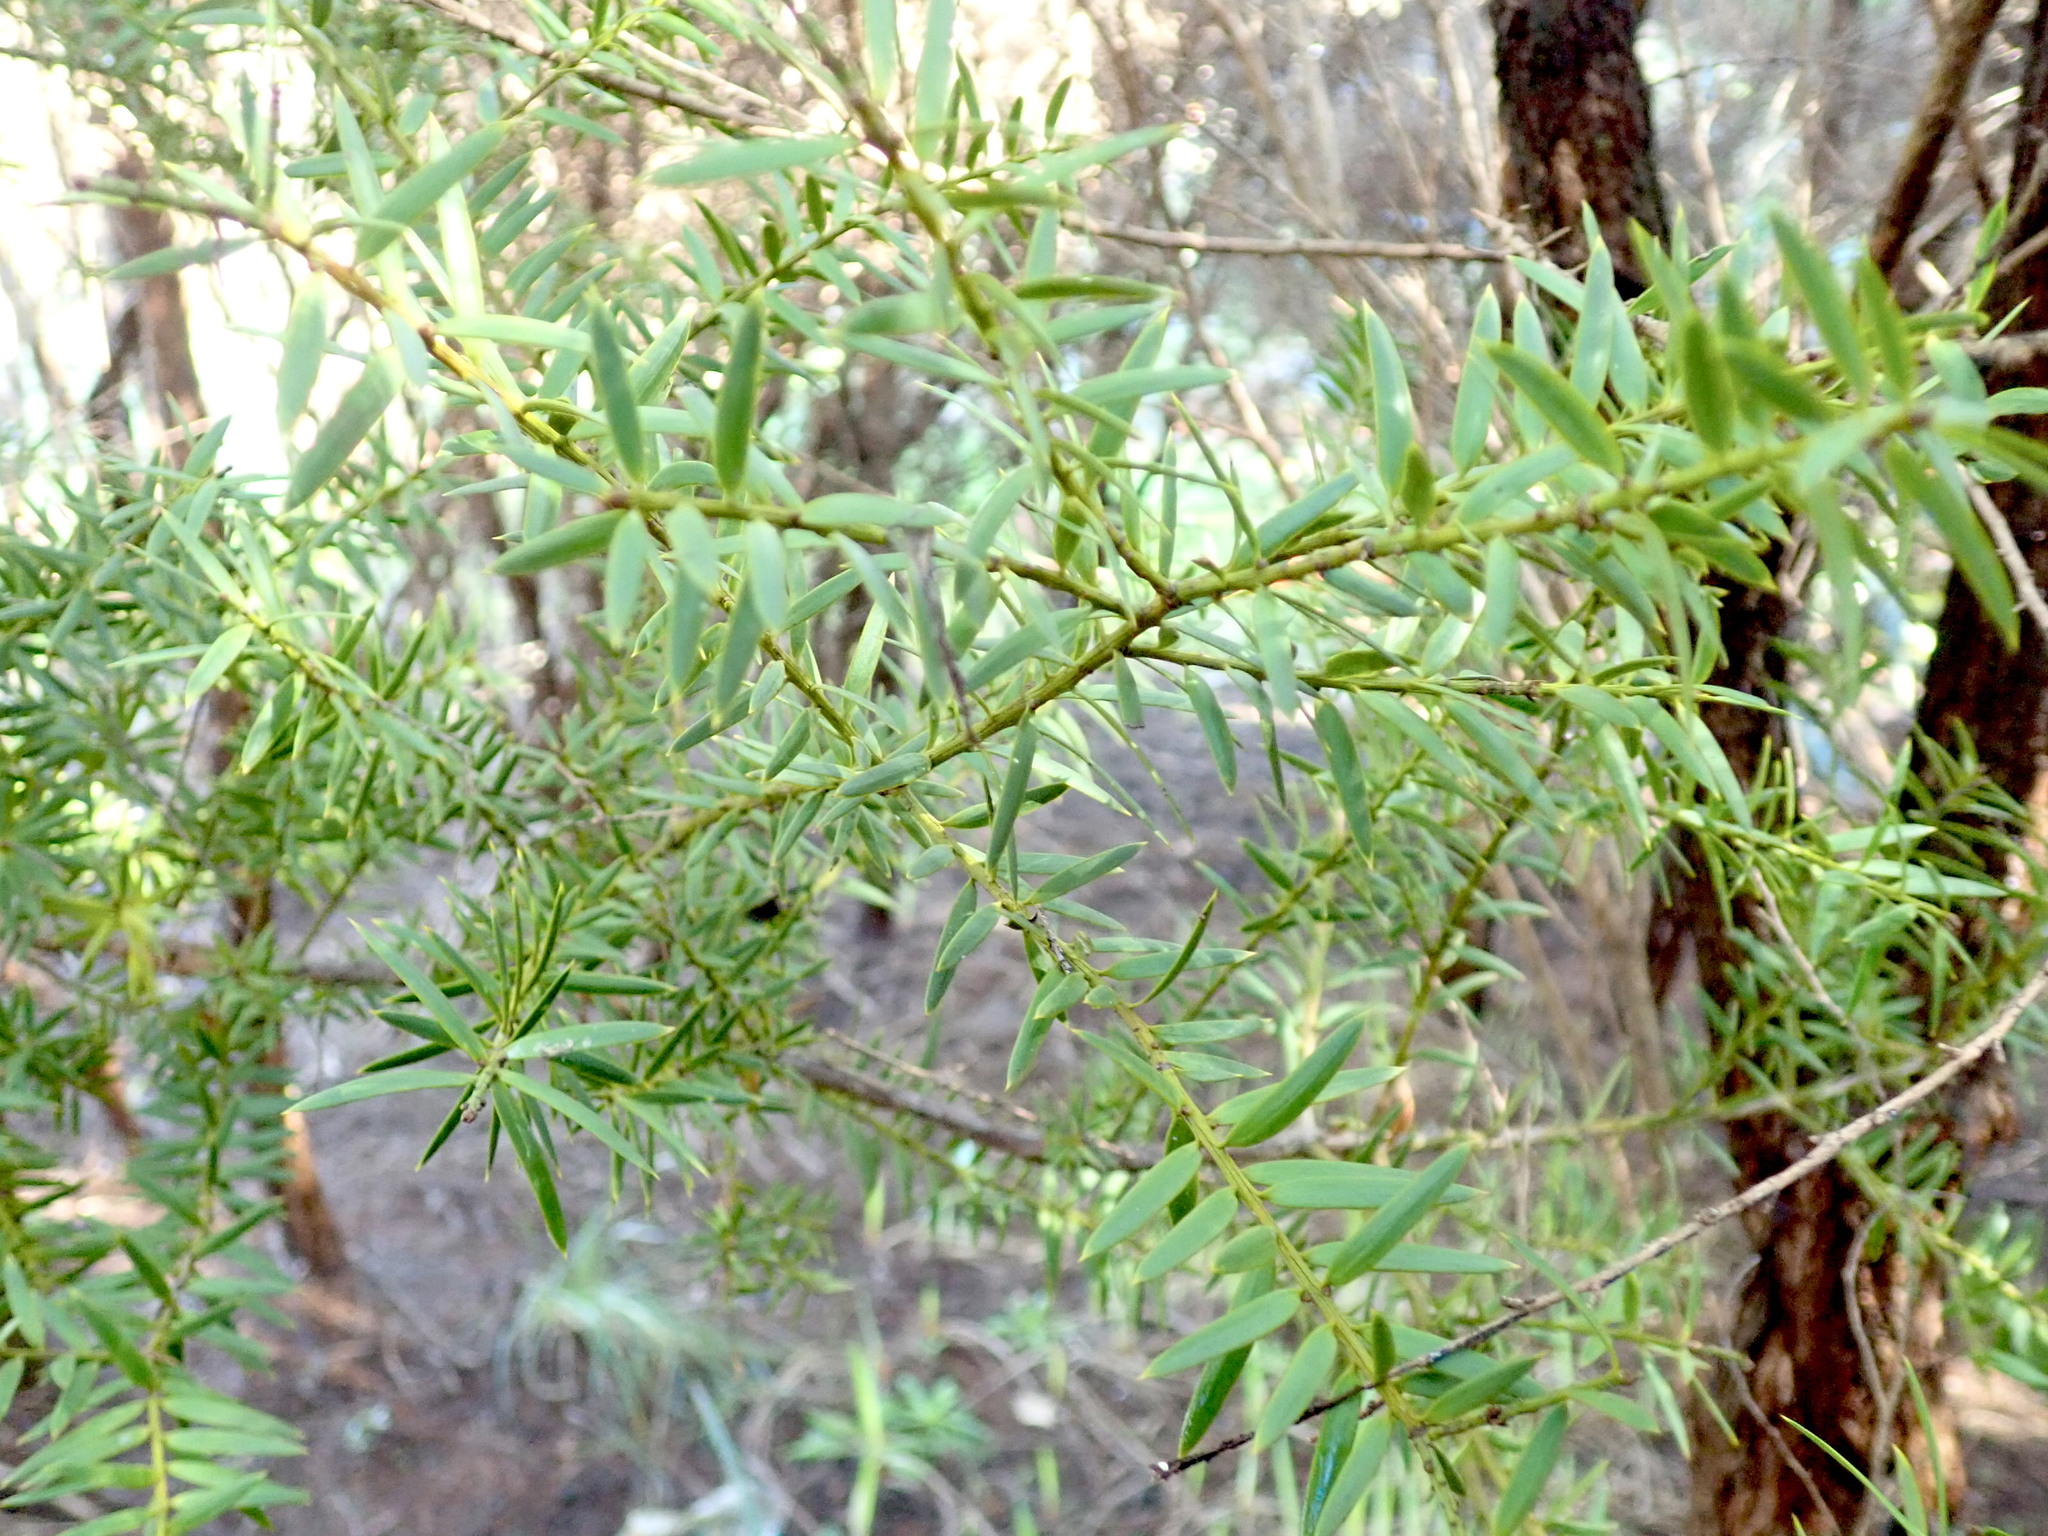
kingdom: Plantae
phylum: Tracheophyta
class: Pinopsida
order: Pinales
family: Podocarpaceae
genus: Podocarpus
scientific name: Podocarpus totara
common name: Totara
